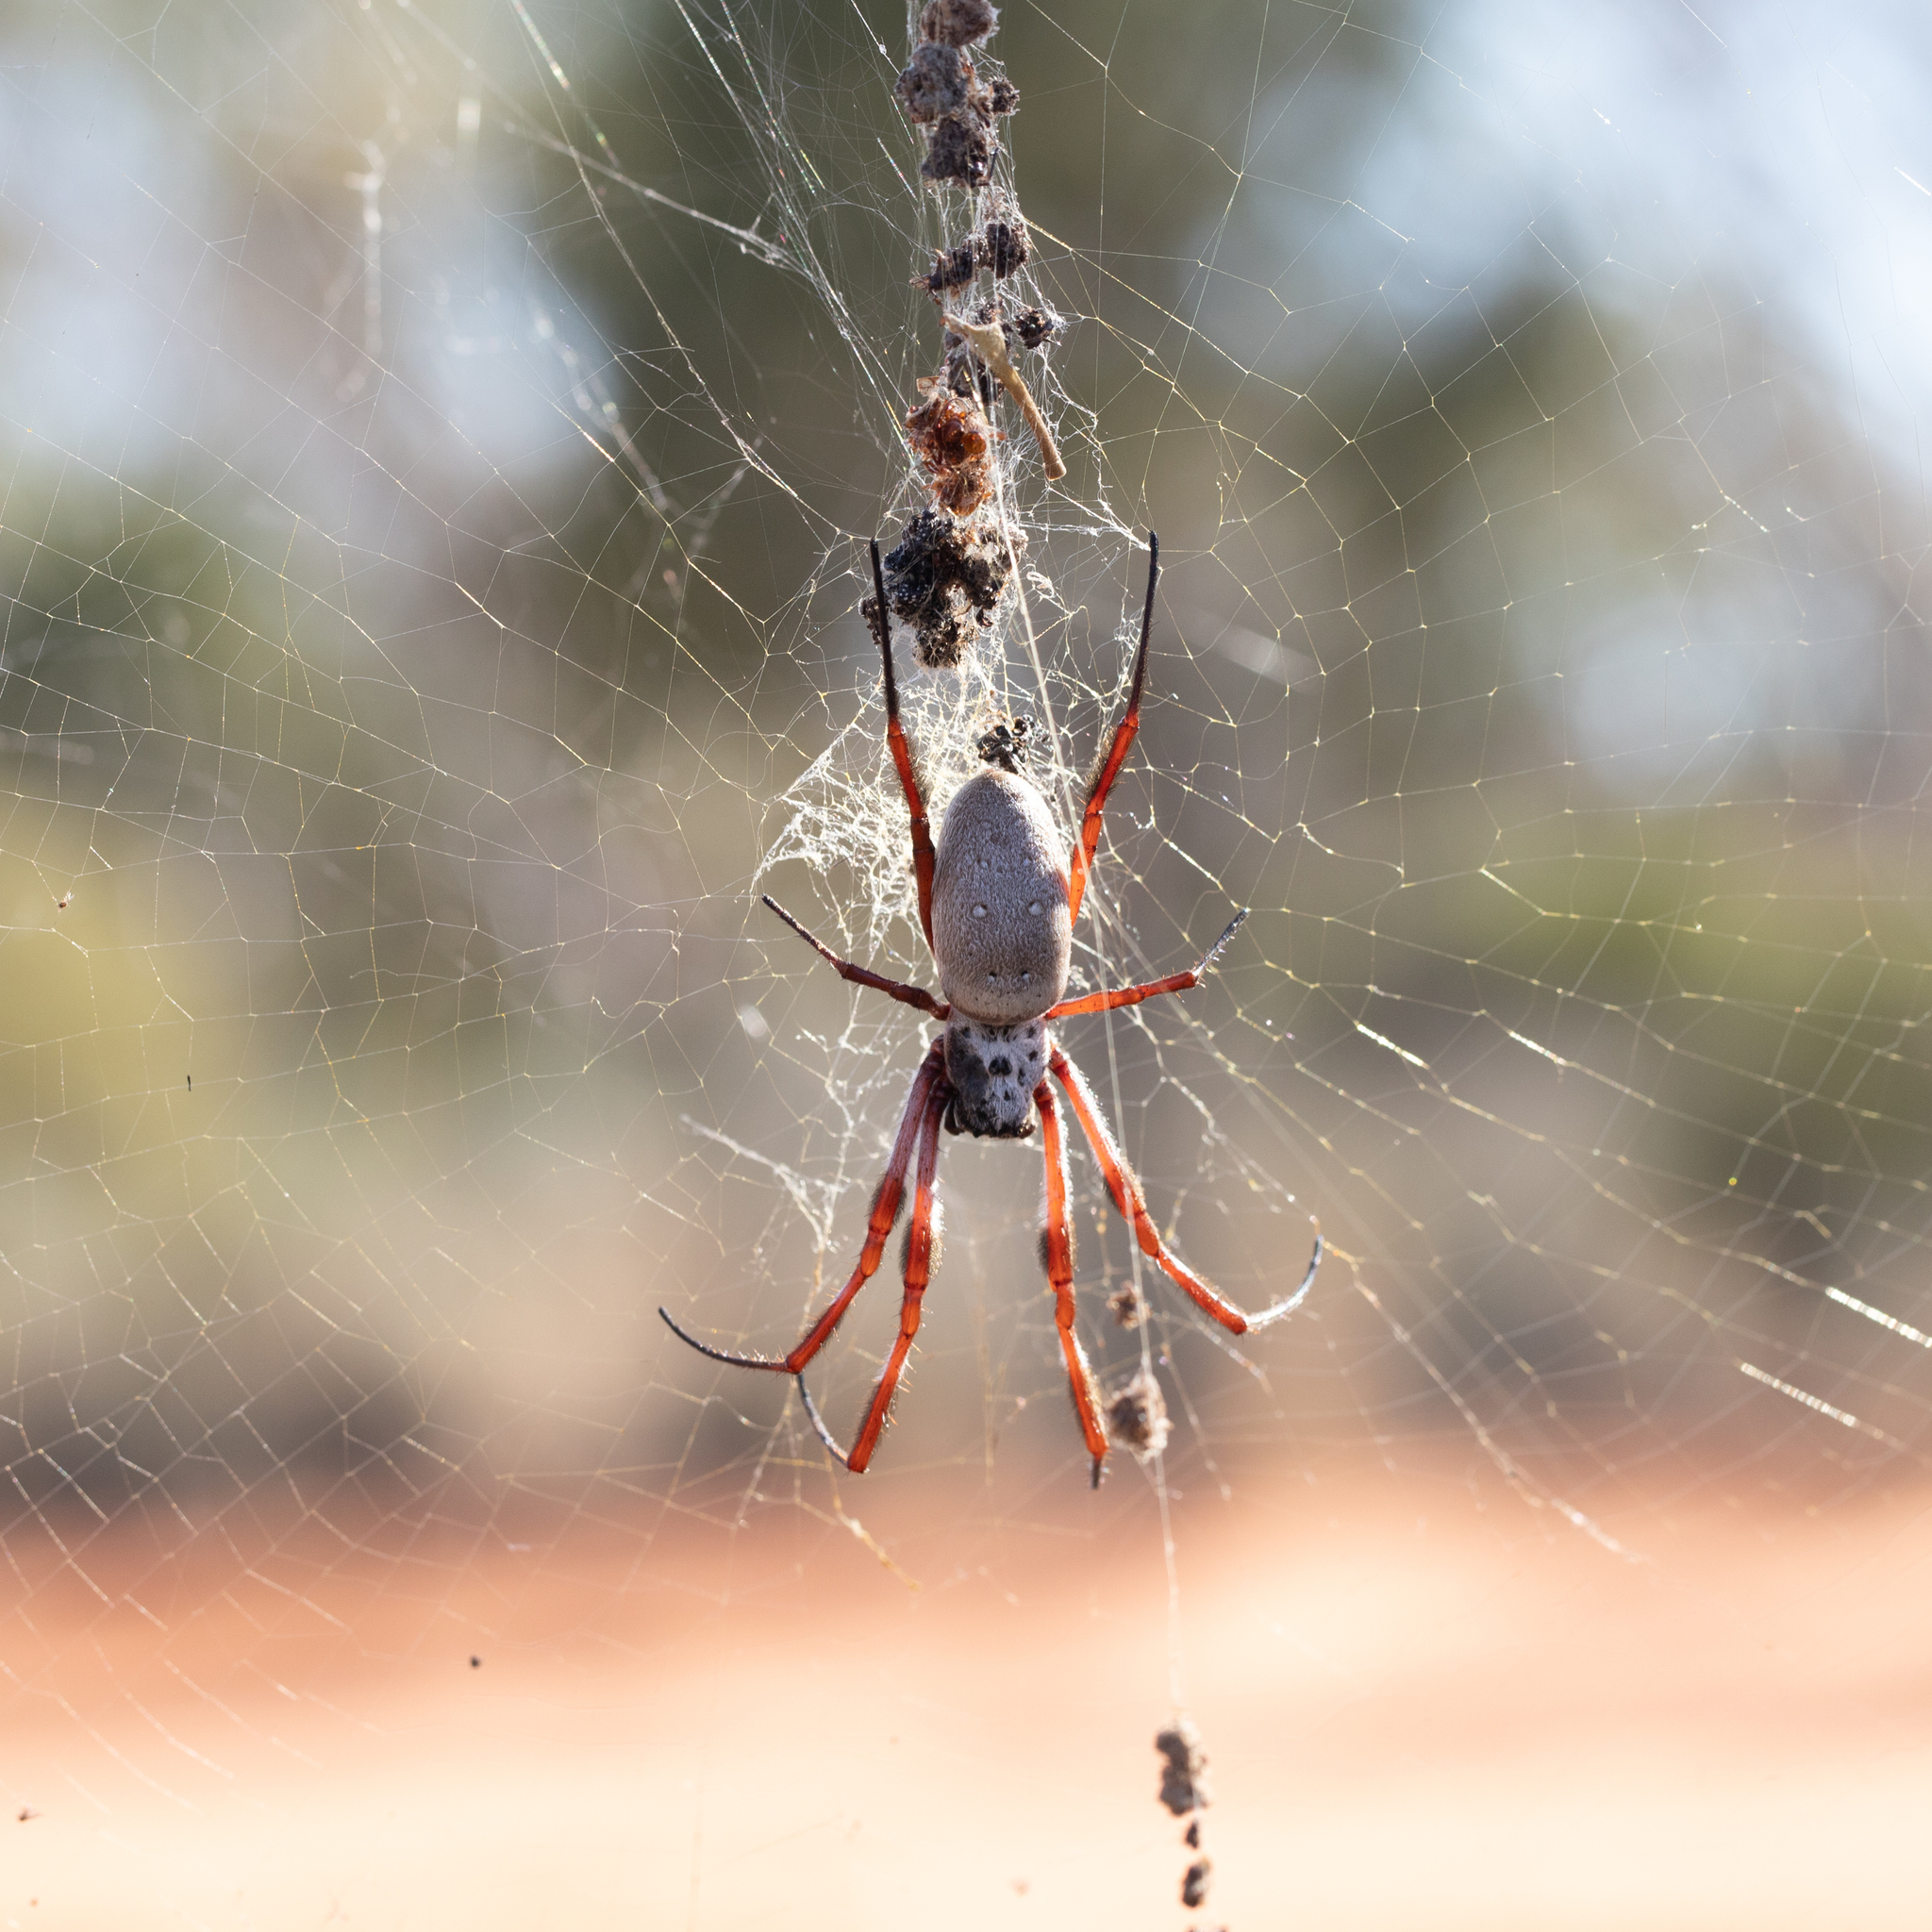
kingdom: Animalia
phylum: Arthropoda
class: Arachnida
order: Araneae
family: Araneidae
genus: Trichonephila
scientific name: Trichonephila edulis
